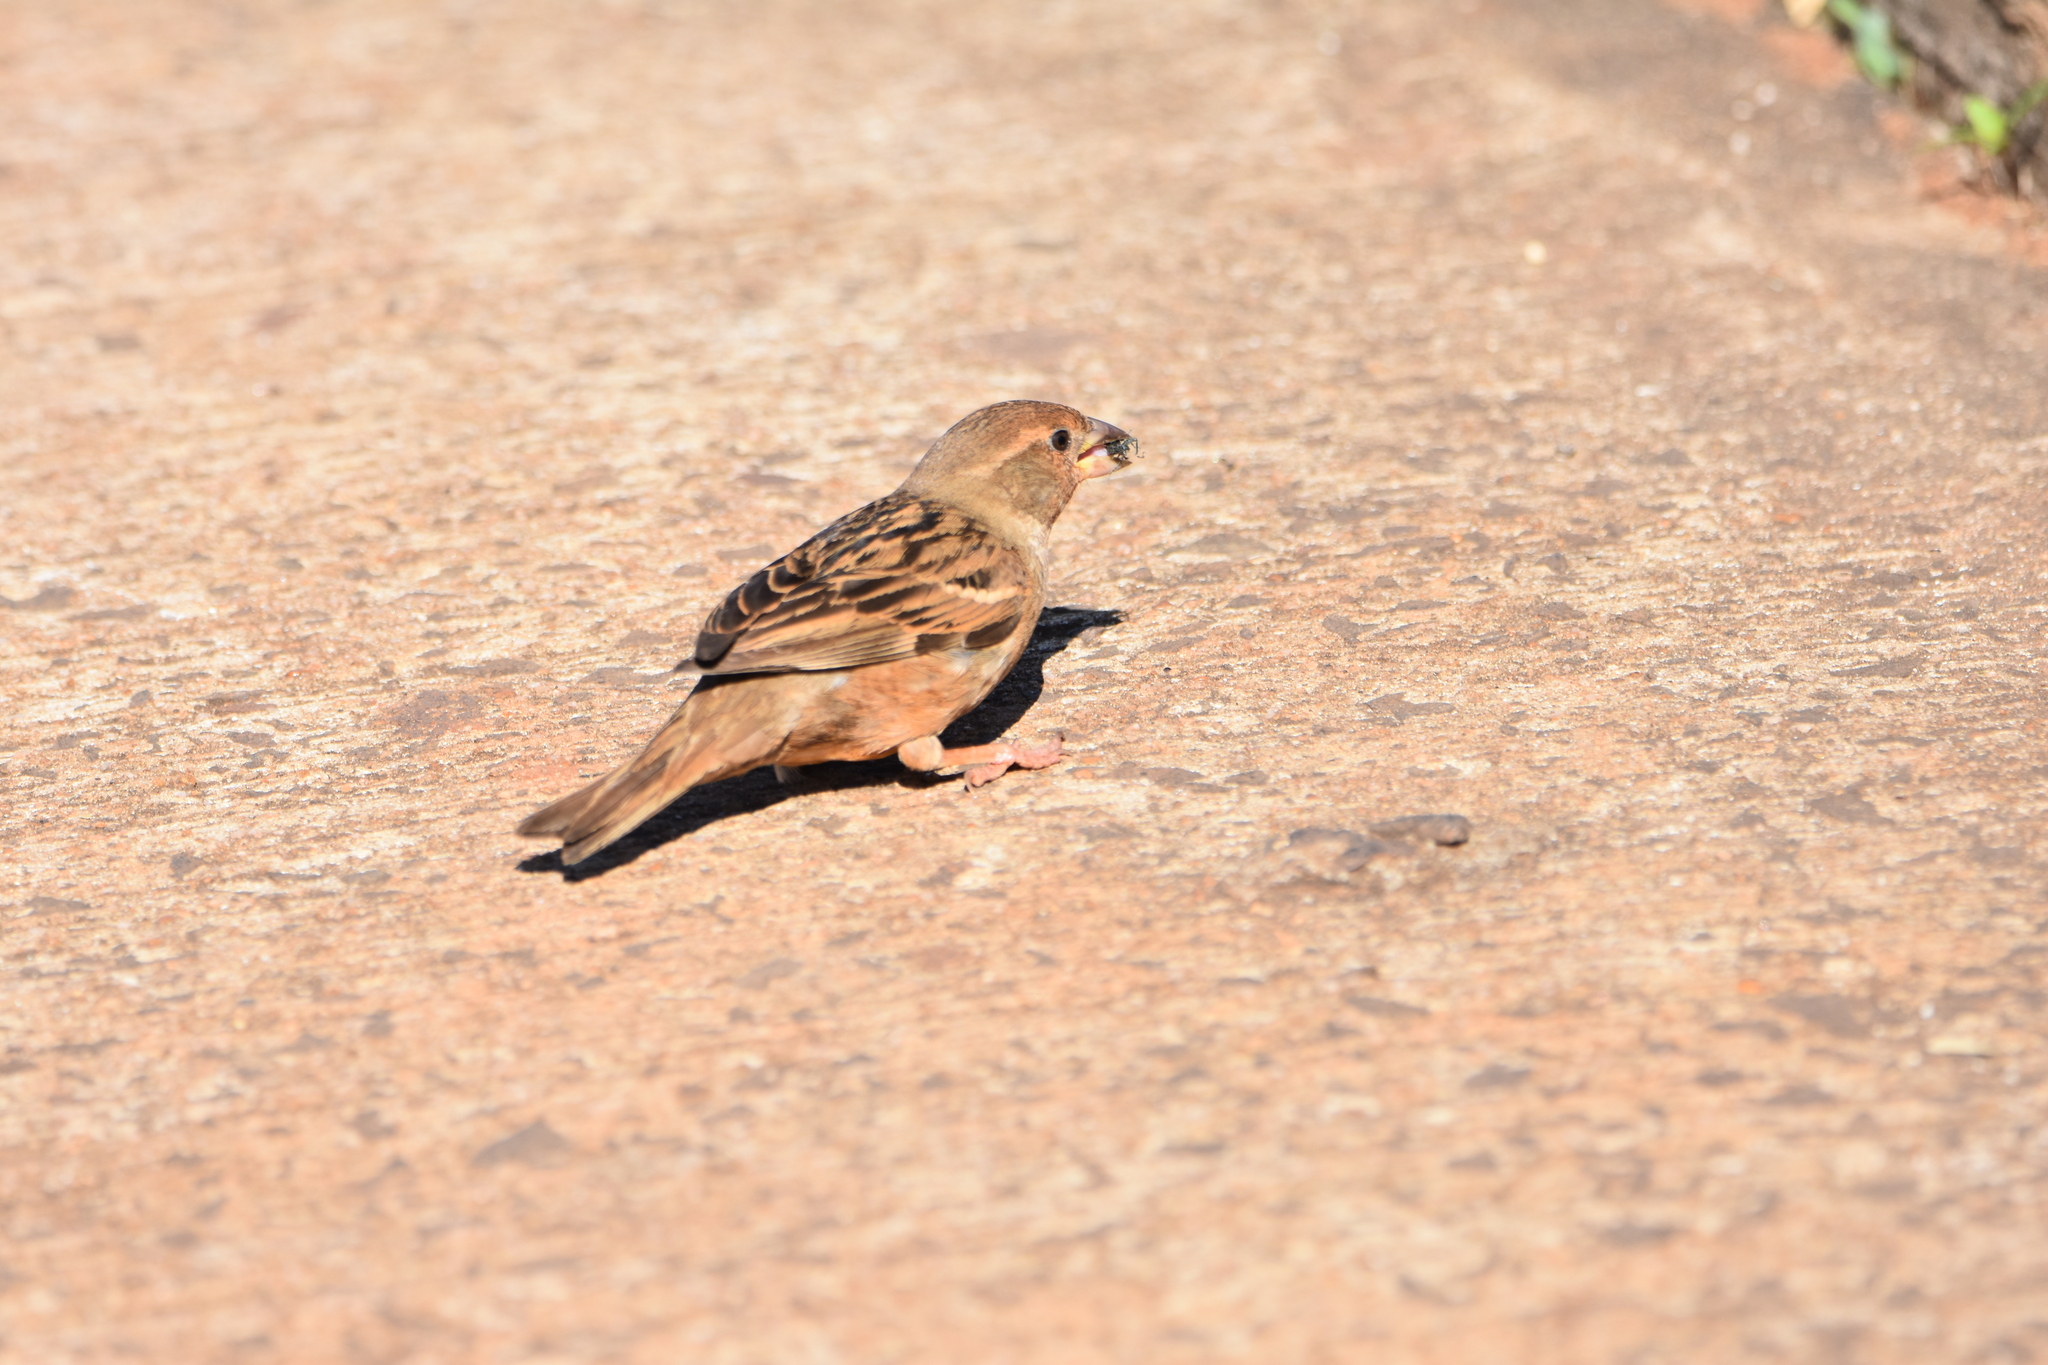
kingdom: Animalia
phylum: Chordata
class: Aves
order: Passeriformes
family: Passeridae
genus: Passer
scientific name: Passer domesticus
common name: House sparrow
